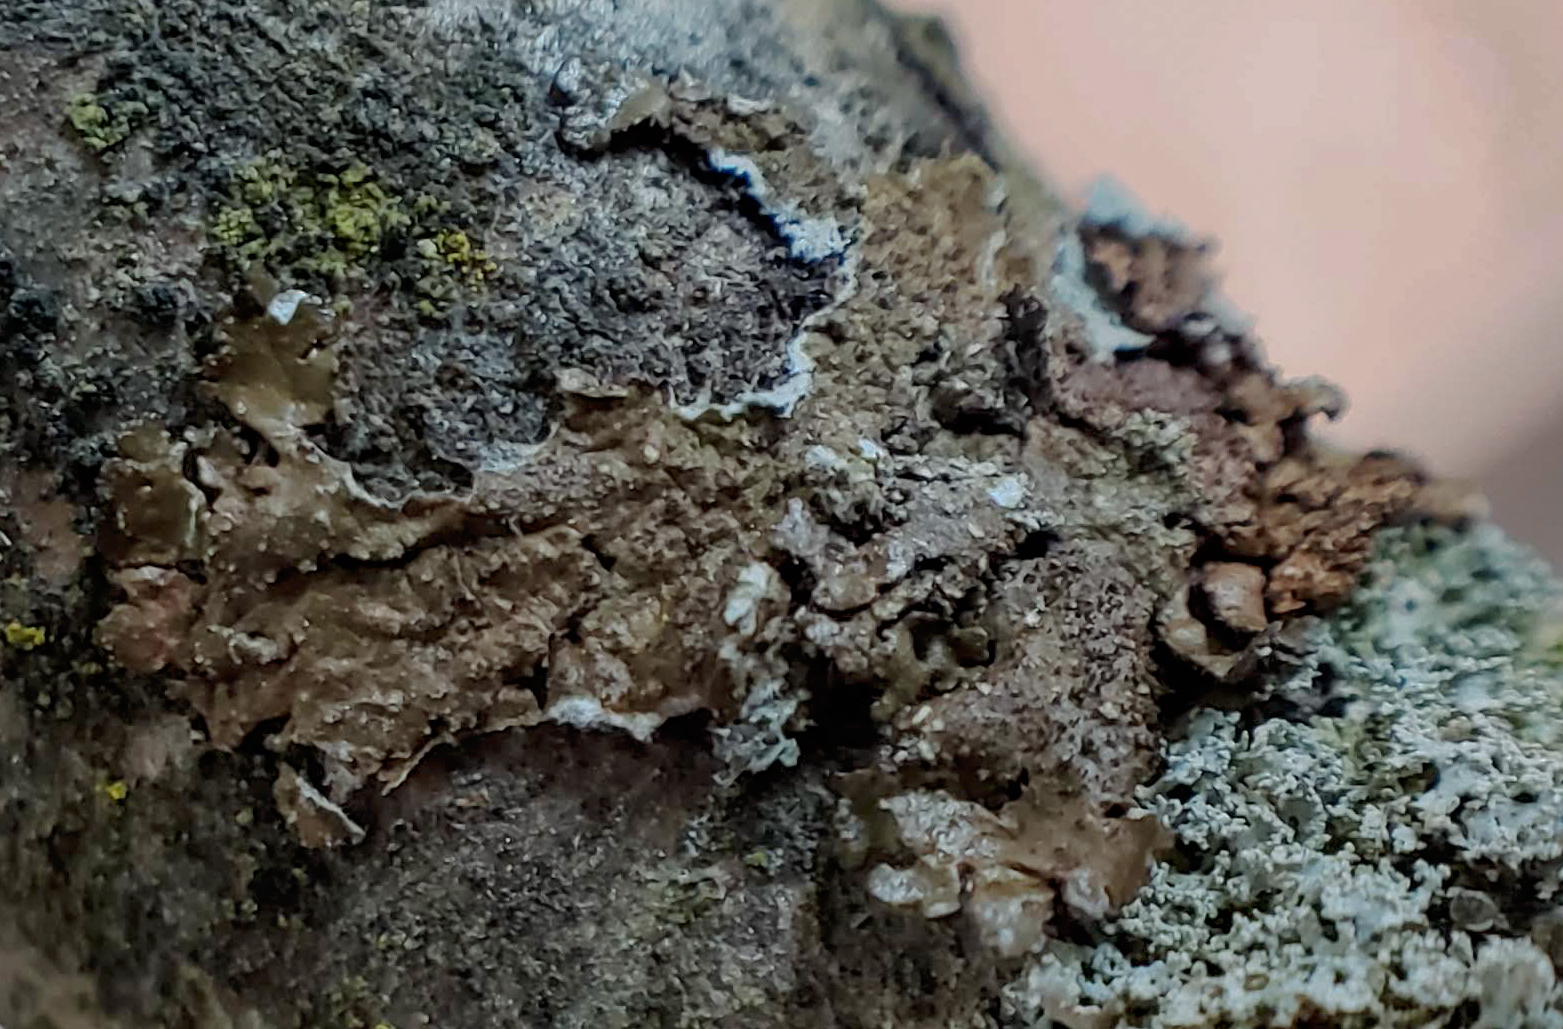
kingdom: Fungi
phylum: Ascomycota
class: Lecanoromycetes
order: Lecanorales
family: Parmeliaceae
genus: Melanelixia
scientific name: Melanelixia subaurifera
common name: Abraded camouflage lichen
